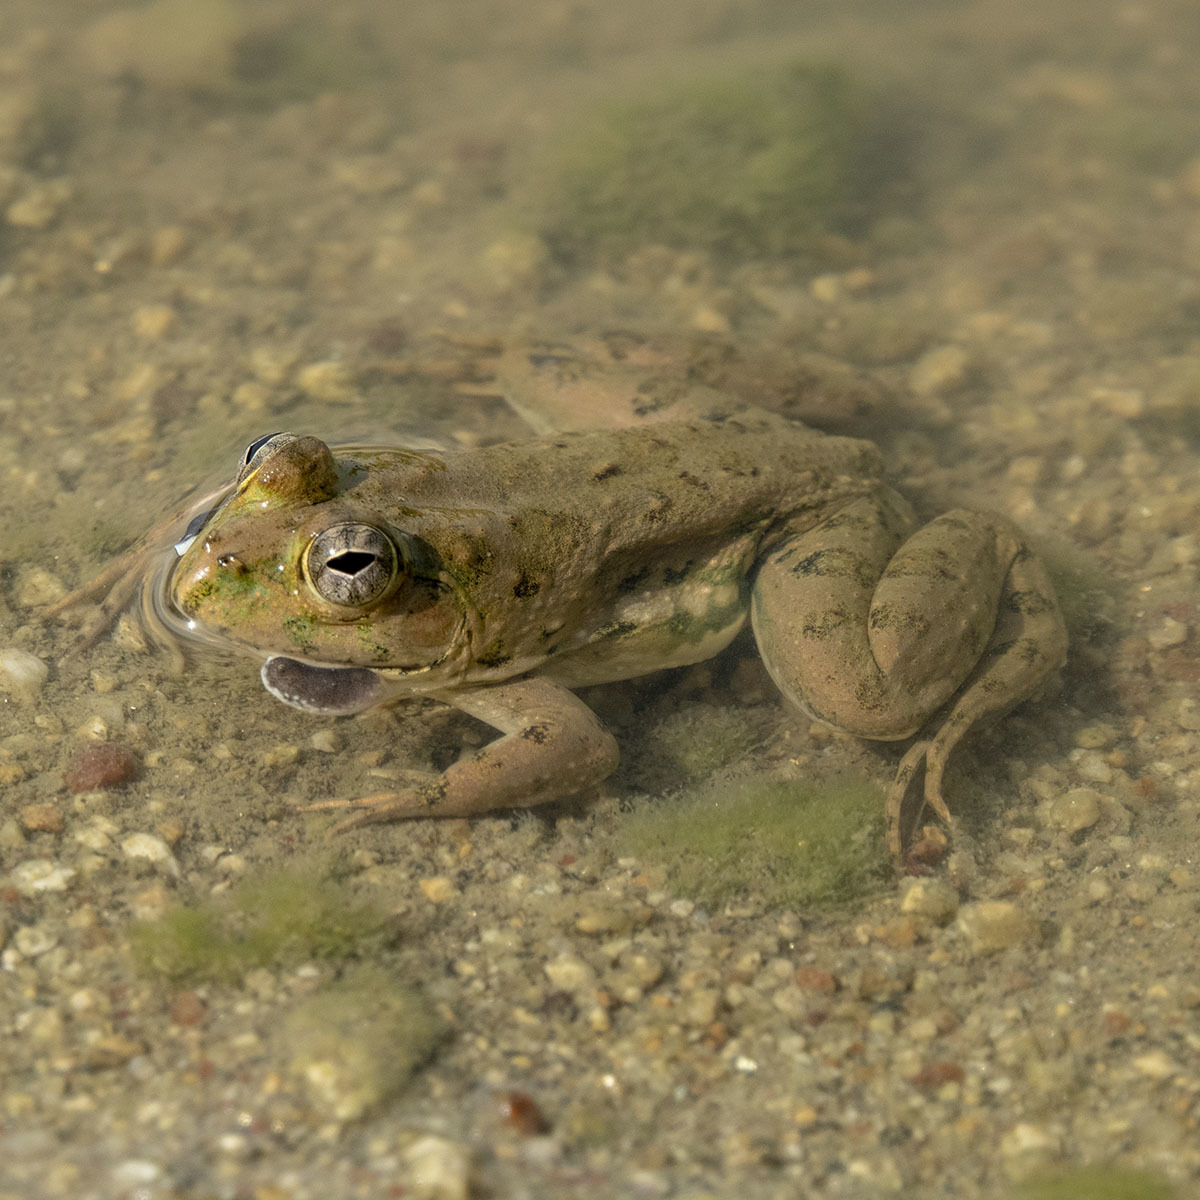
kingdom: Animalia
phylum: Chordata
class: Amphibia
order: Anura
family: Dicroglossidae
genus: Euphlyctis
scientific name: Euphlyctis cyanophlyctis
